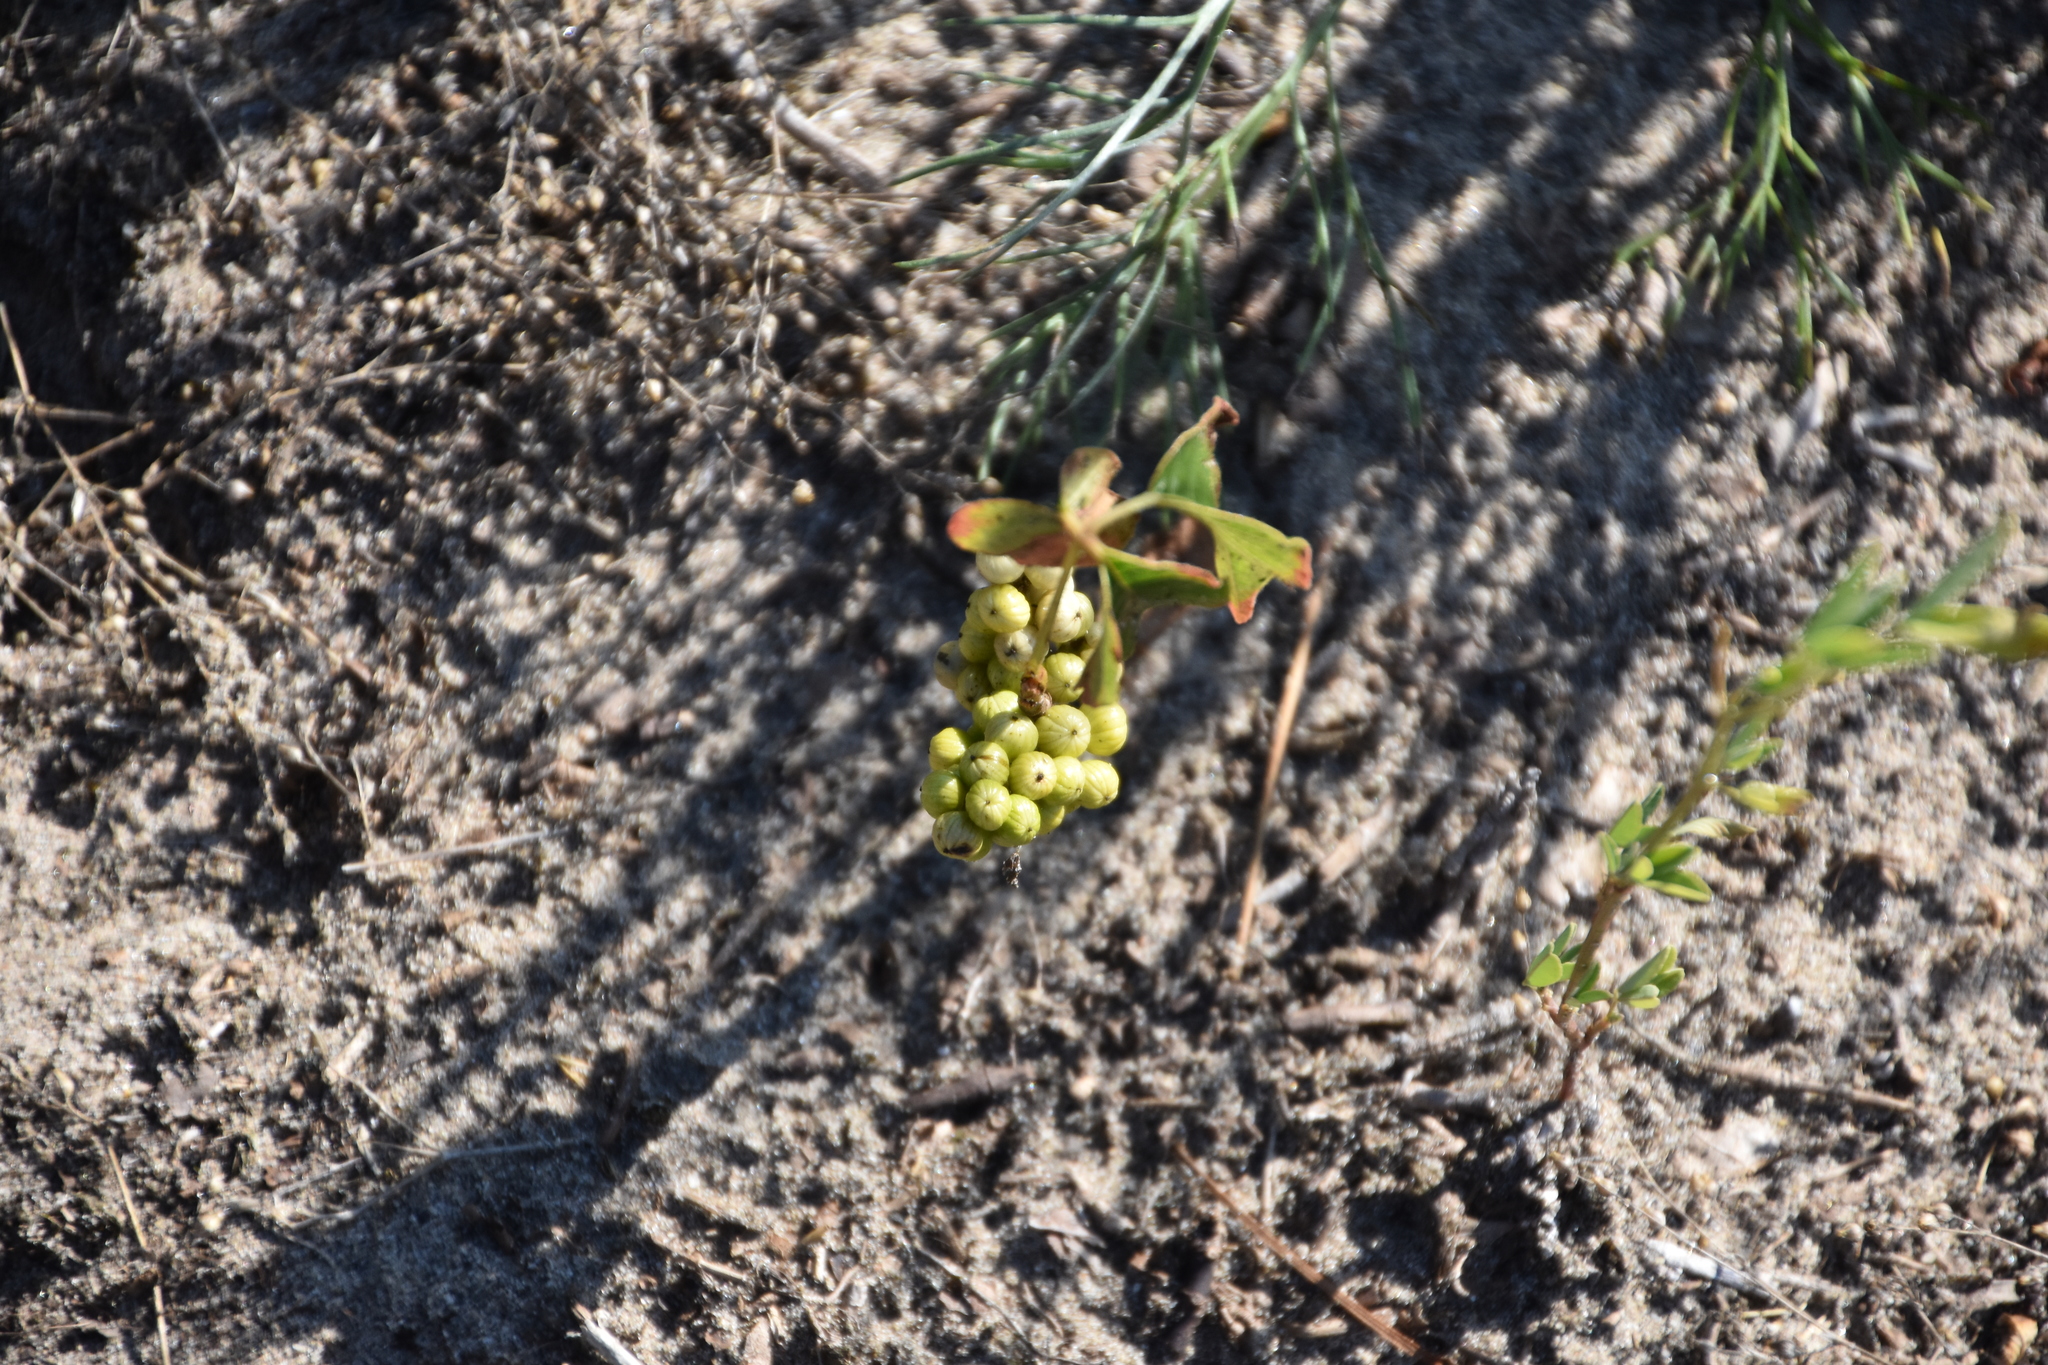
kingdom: Plantae
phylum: Tracheophyta
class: Magnoliopsida
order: Sapindales
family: Anacardiaceae
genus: Toxicodendron
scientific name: Toxicodendron rydbergii
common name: Rydberg's poison-ivy
